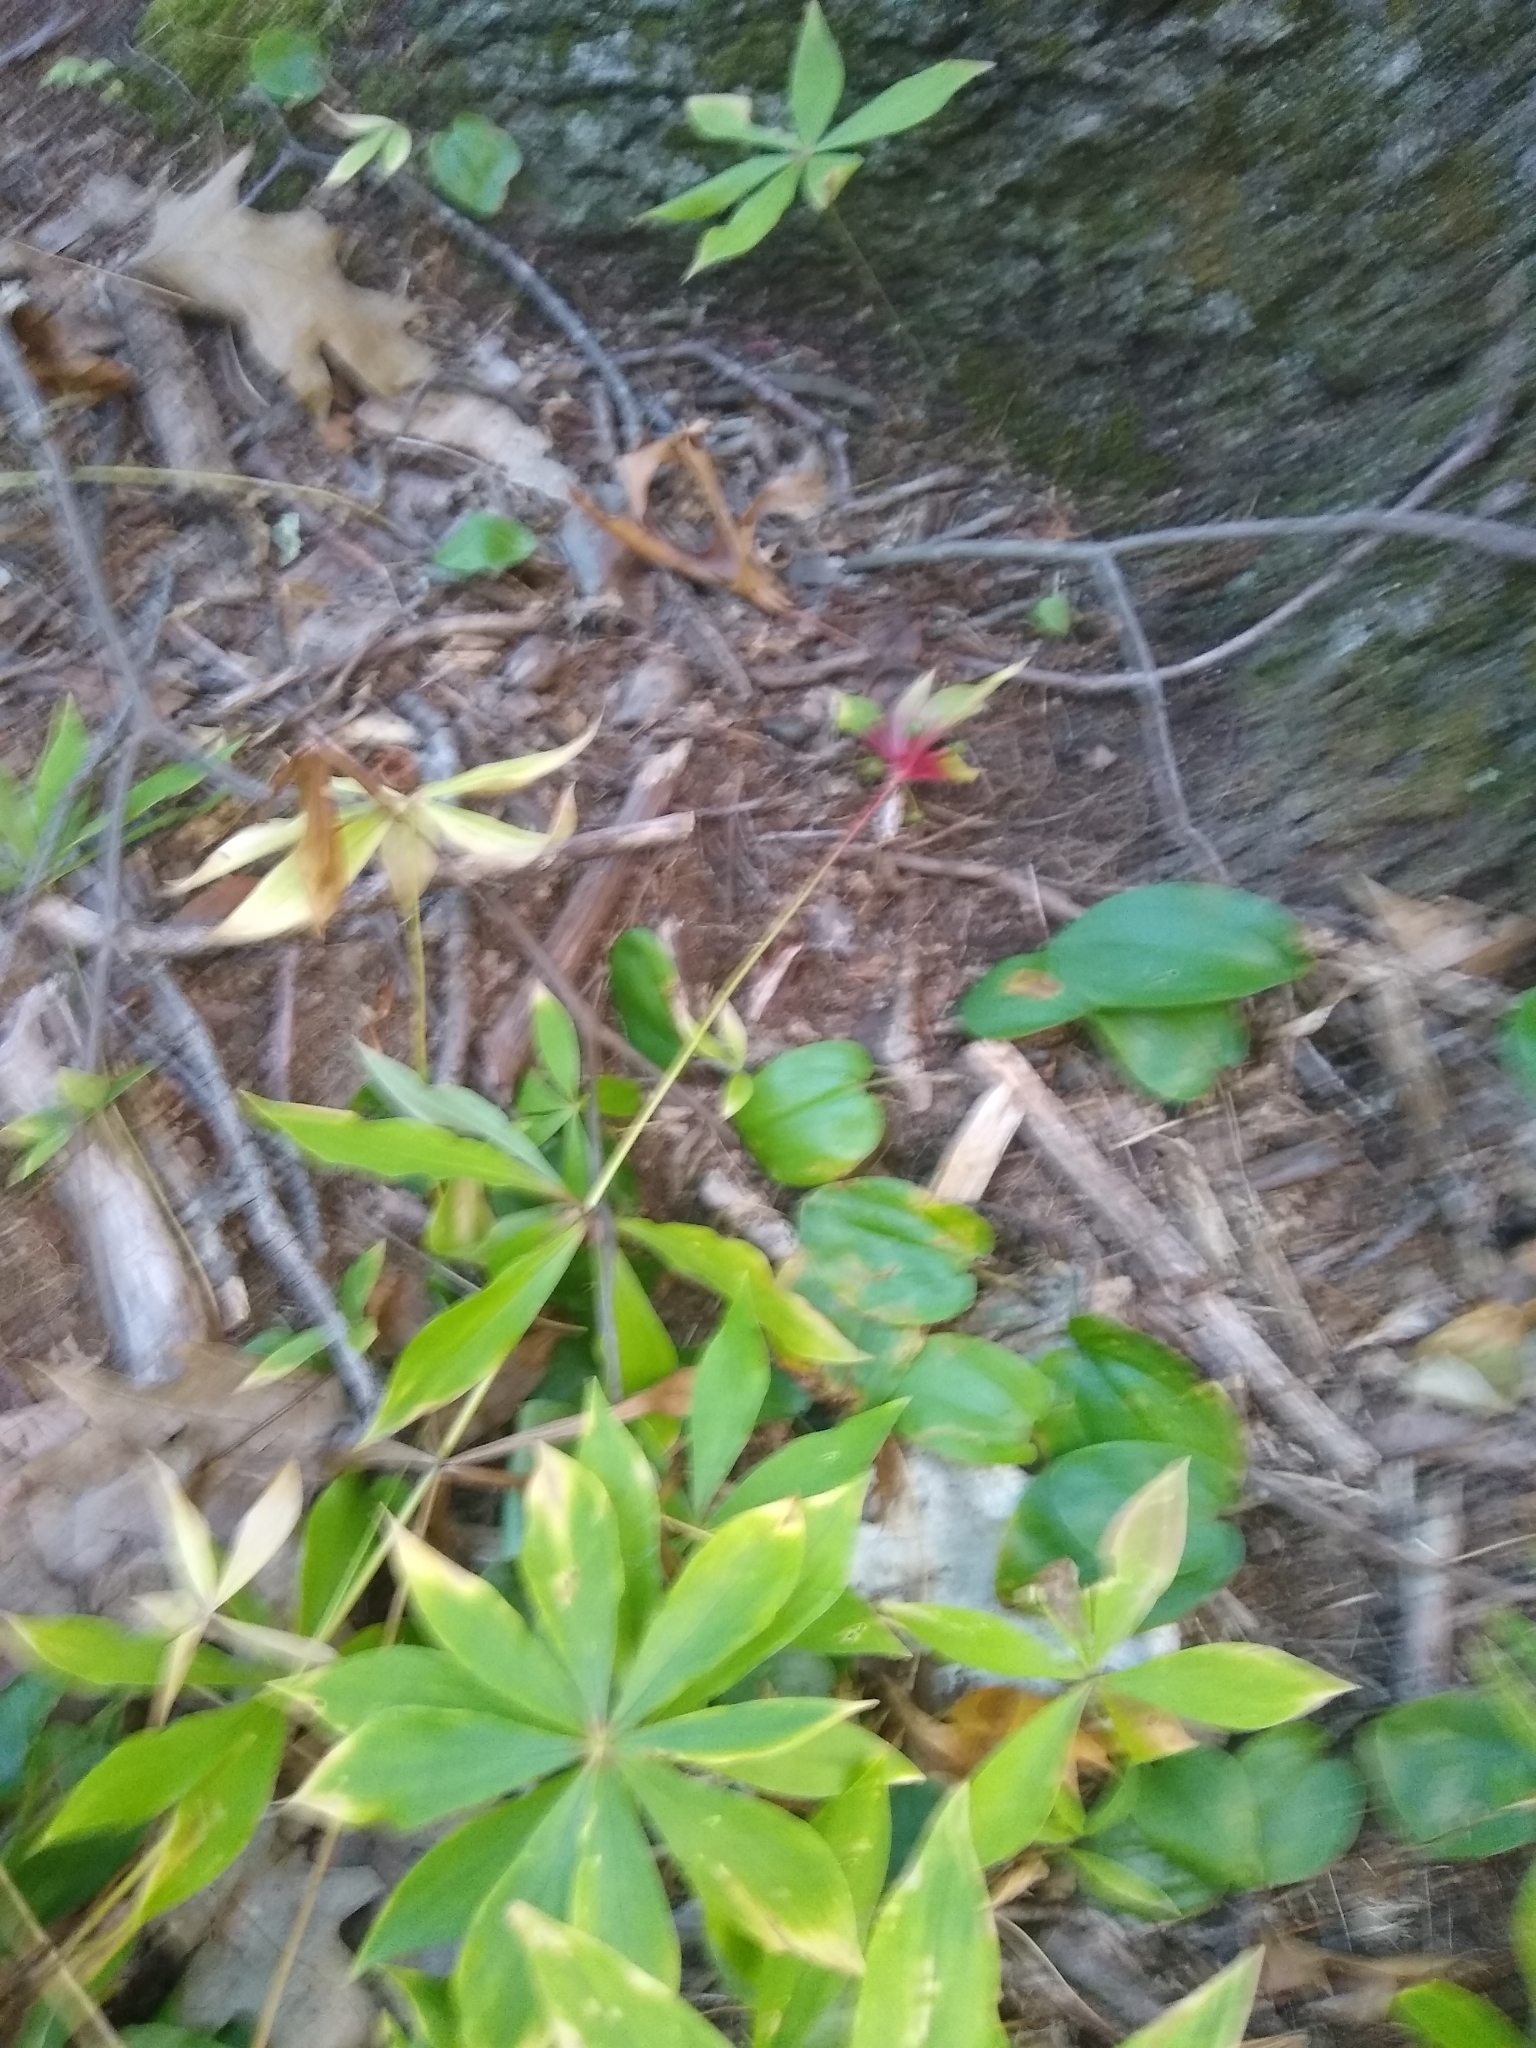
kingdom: Plantae
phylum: Tracheophyta
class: Liliopsida
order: Liliales
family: Liliaceae
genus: Medeola
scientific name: Medeola virginiana
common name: Indian cucumber-root
